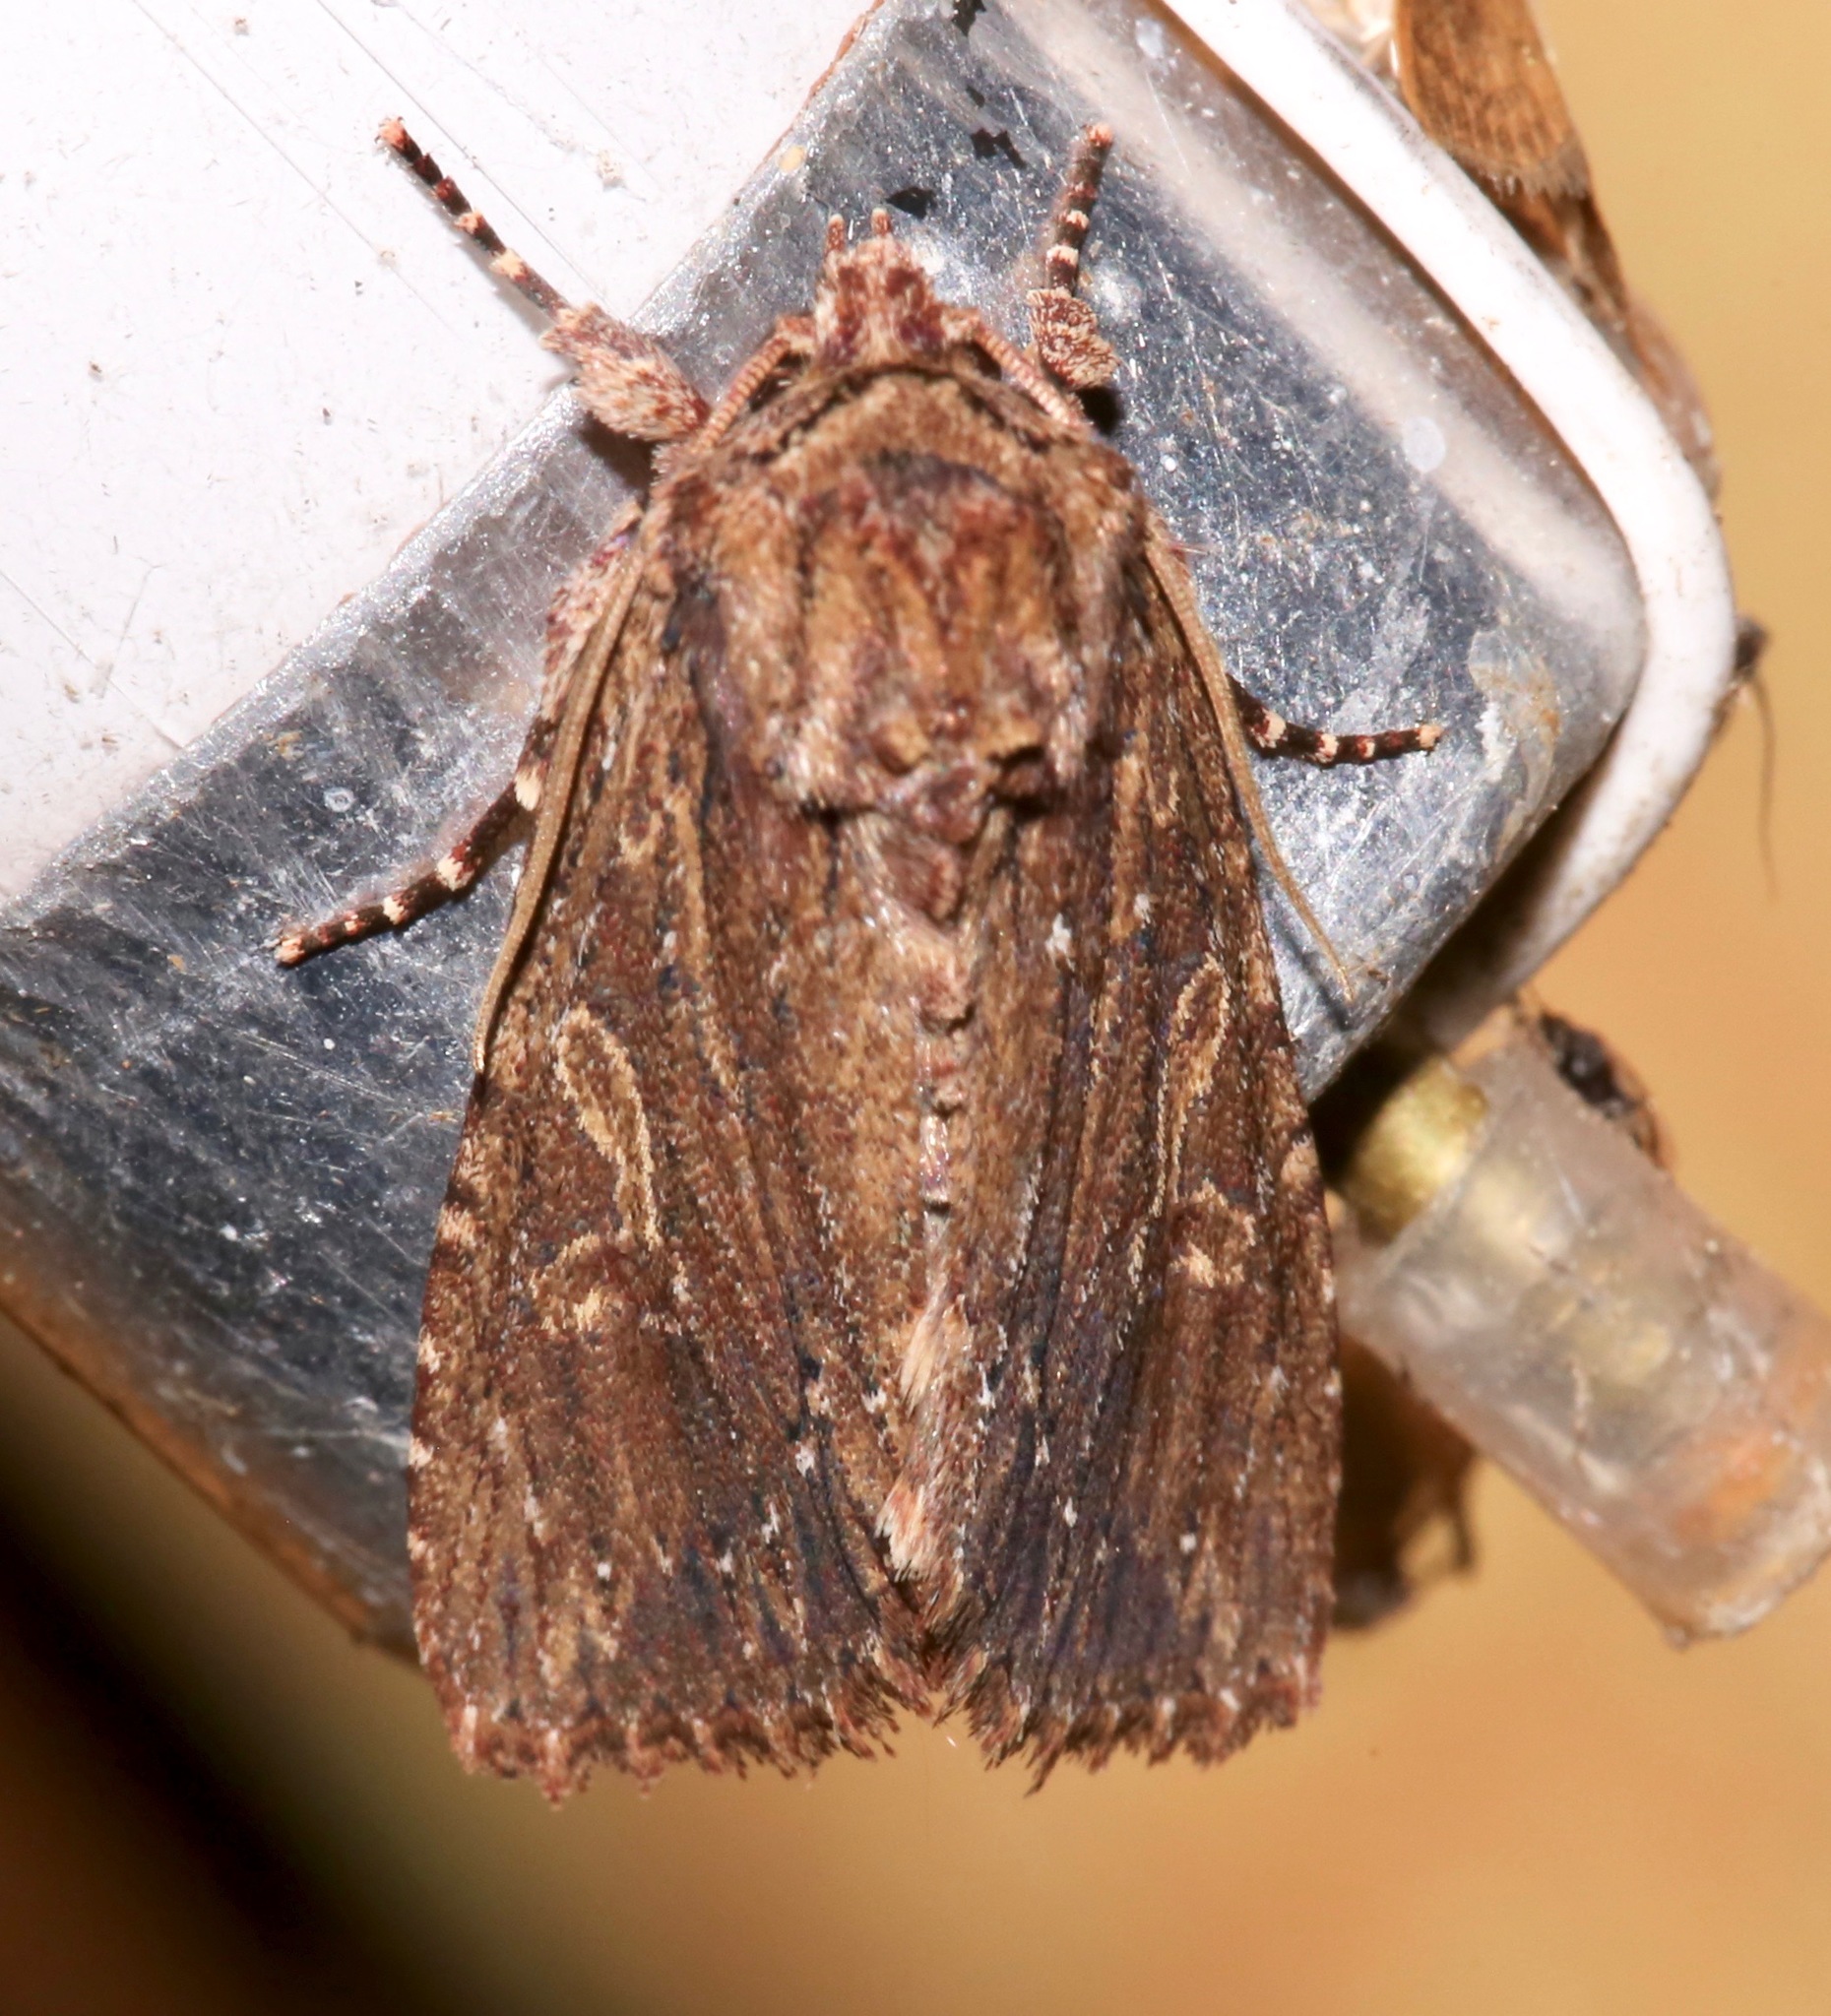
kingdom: Animalia
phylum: Arthropoda
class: Insecta
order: Lepidoptera
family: Noctuidae
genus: Achatia
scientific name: Achatia confusa
